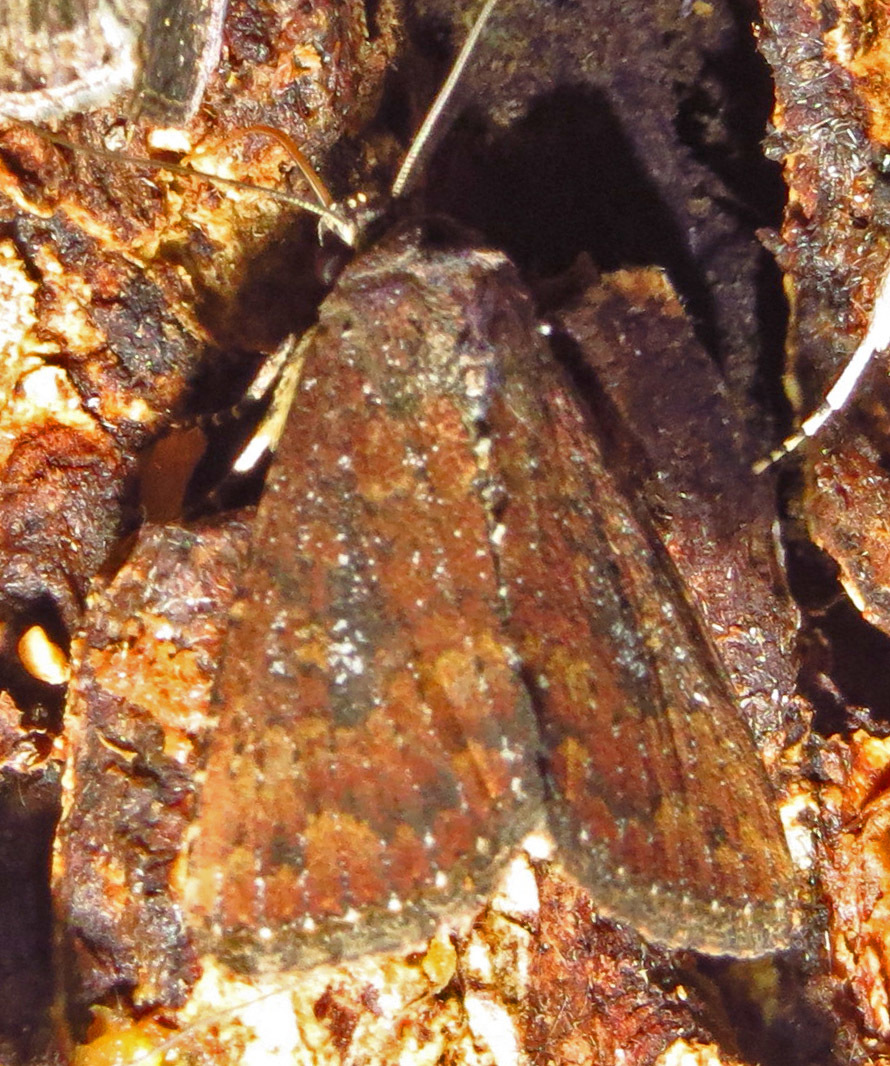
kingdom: Animalia
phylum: Arthropoda
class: Insecta
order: Lepidoptera
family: Noctuidae
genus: Condica
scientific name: Condica sutor
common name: Cobbler moth
